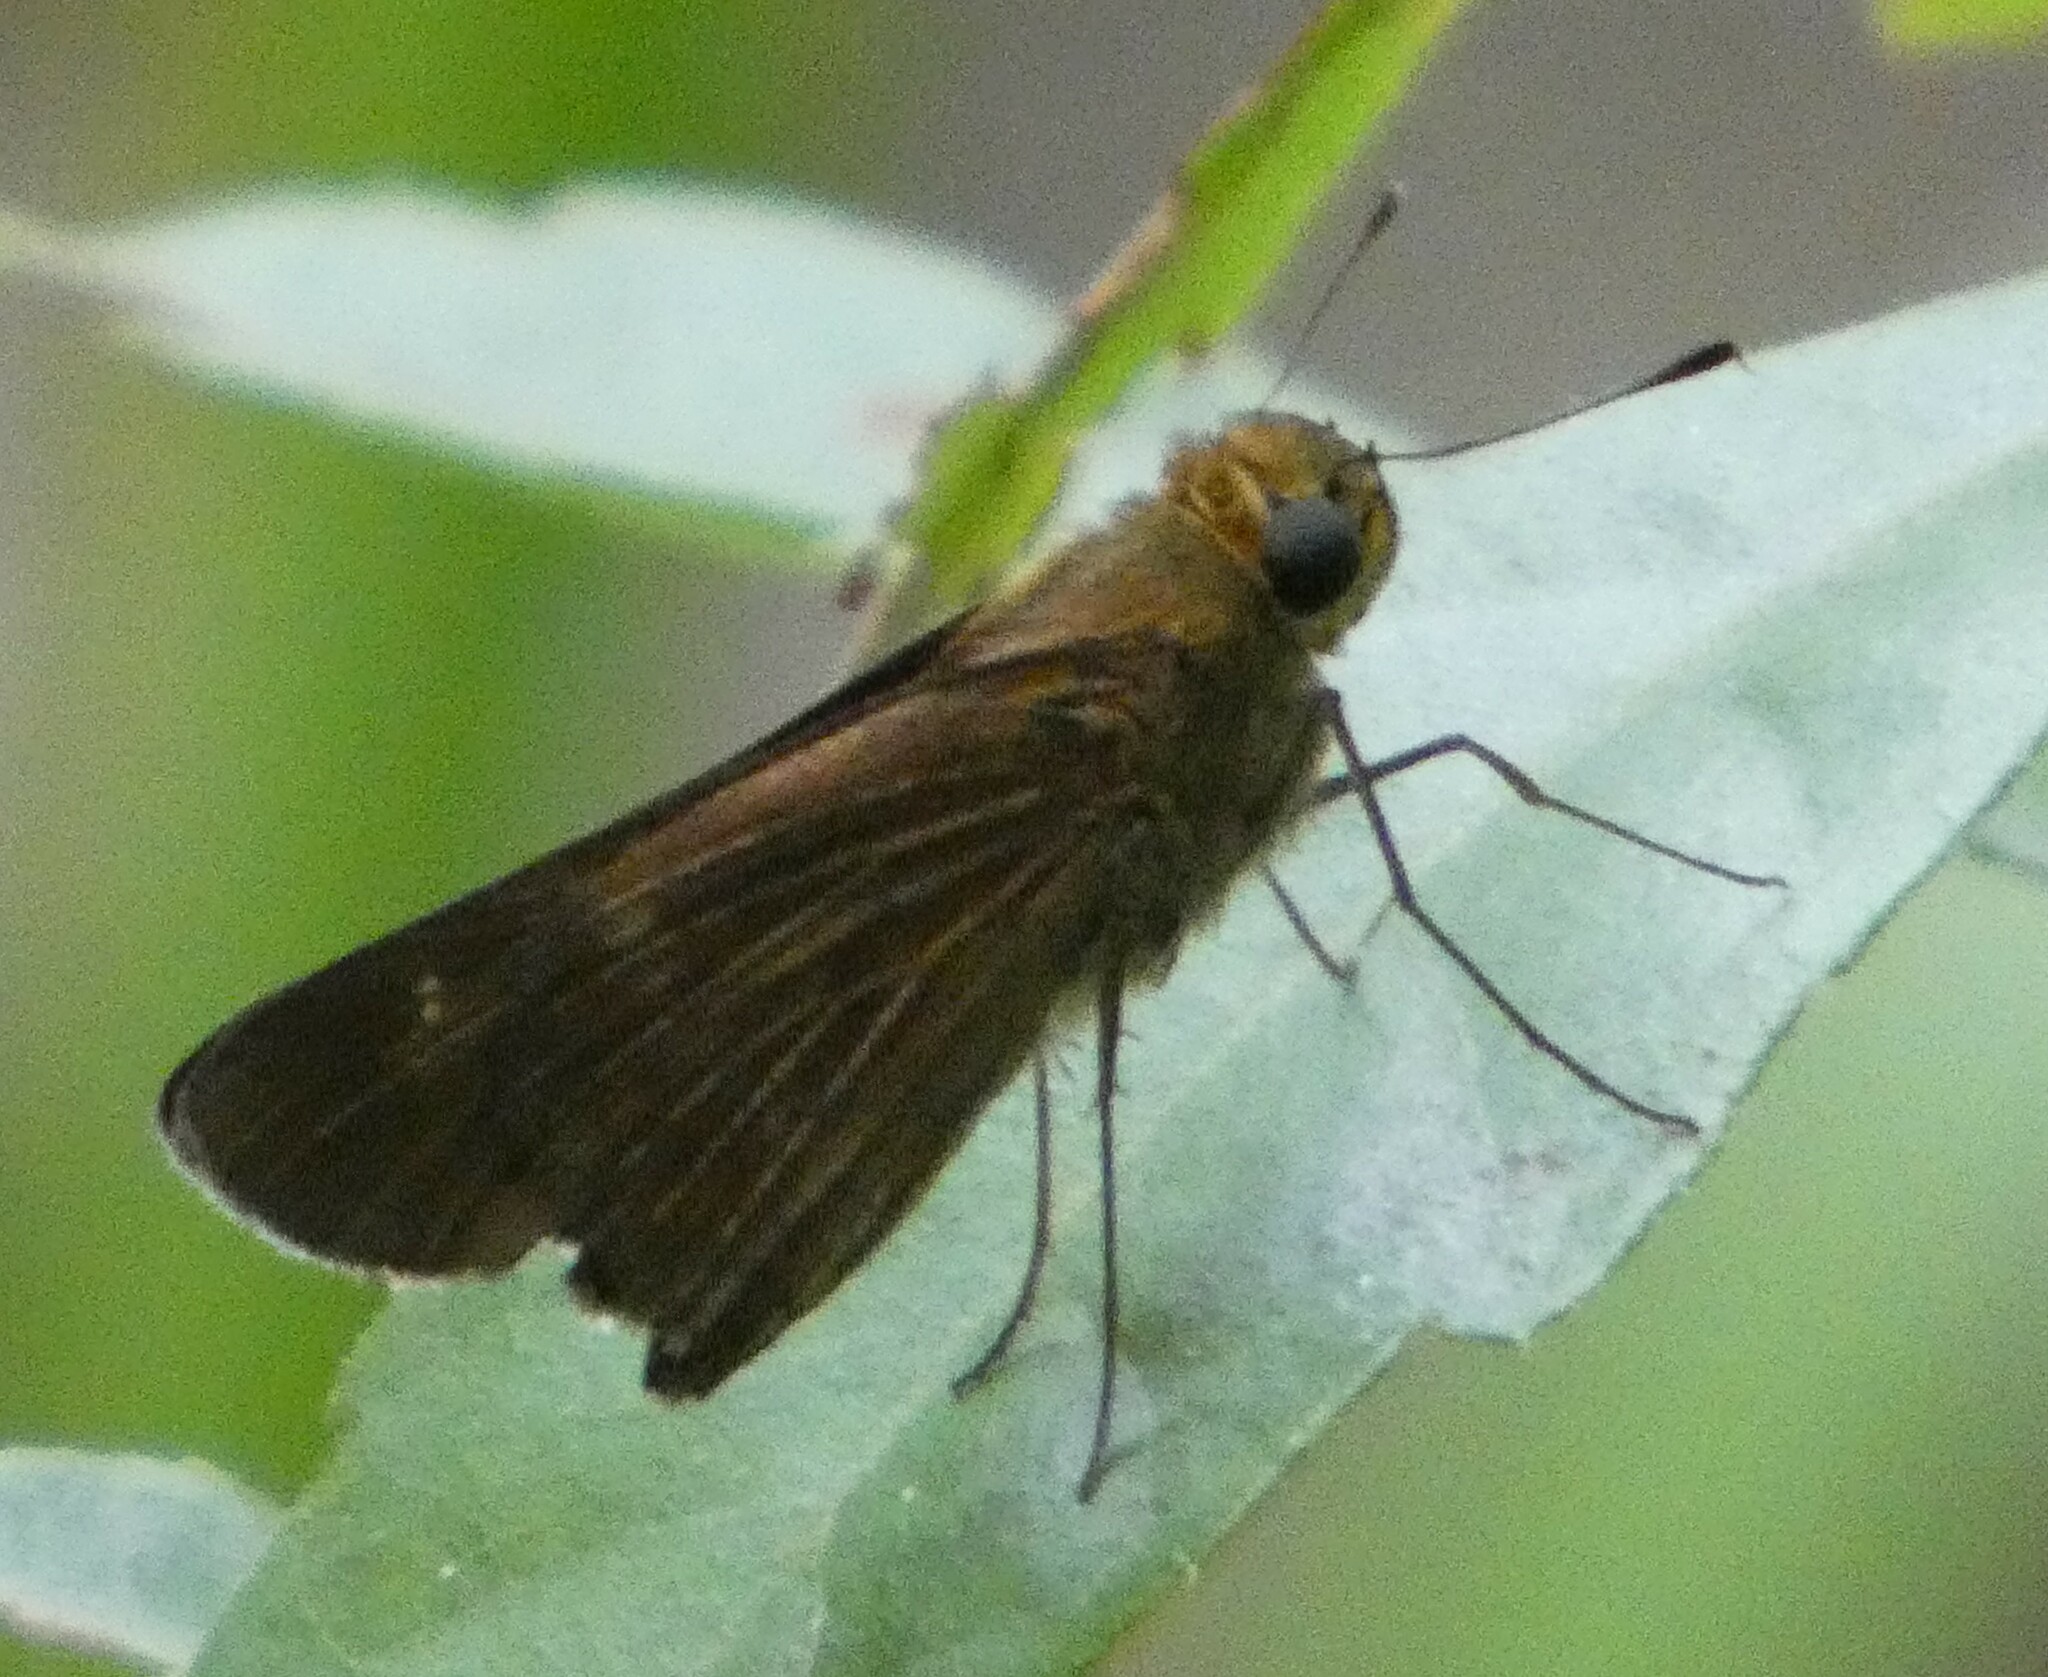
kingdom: Animalia
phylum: Arthropoda
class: Insecta
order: Lepidoptera
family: Hesperiidae
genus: Panoquina
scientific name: Panoquina ocola
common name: Ocola skipper
